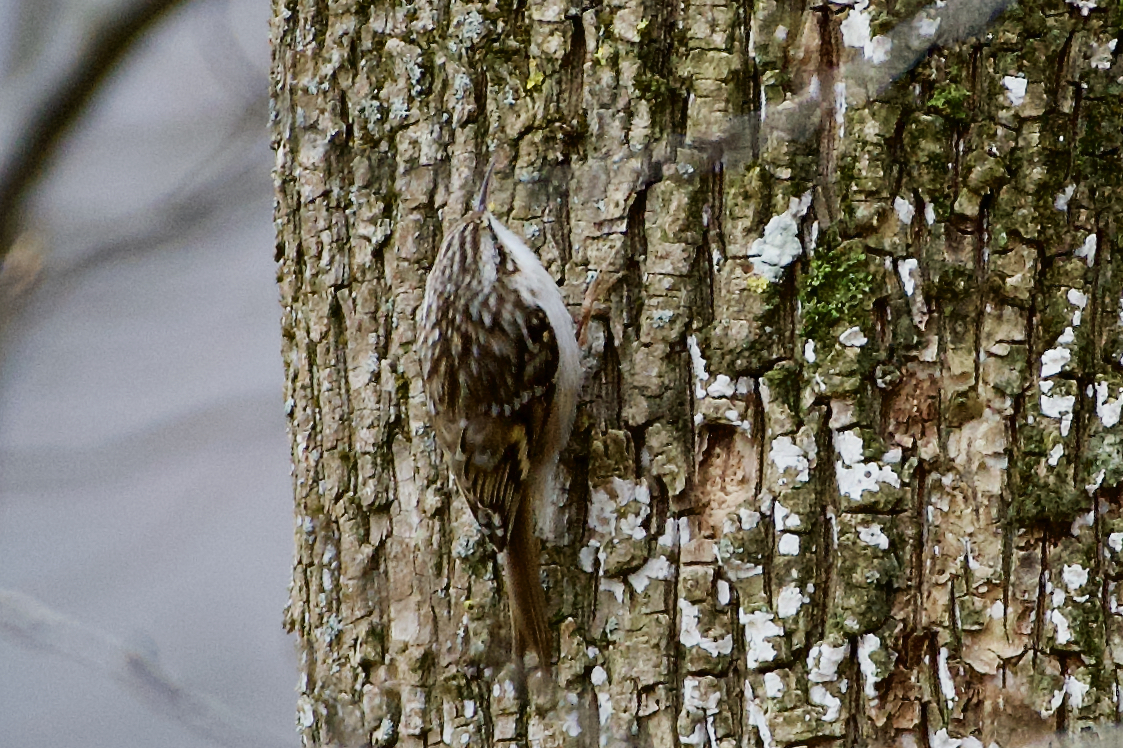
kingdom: Animalia
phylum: Chordata
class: Aves
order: Passeriformes
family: Certhiidae
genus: Certhia
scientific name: Certhia brachydactyla
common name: Short-toed treecreeper
